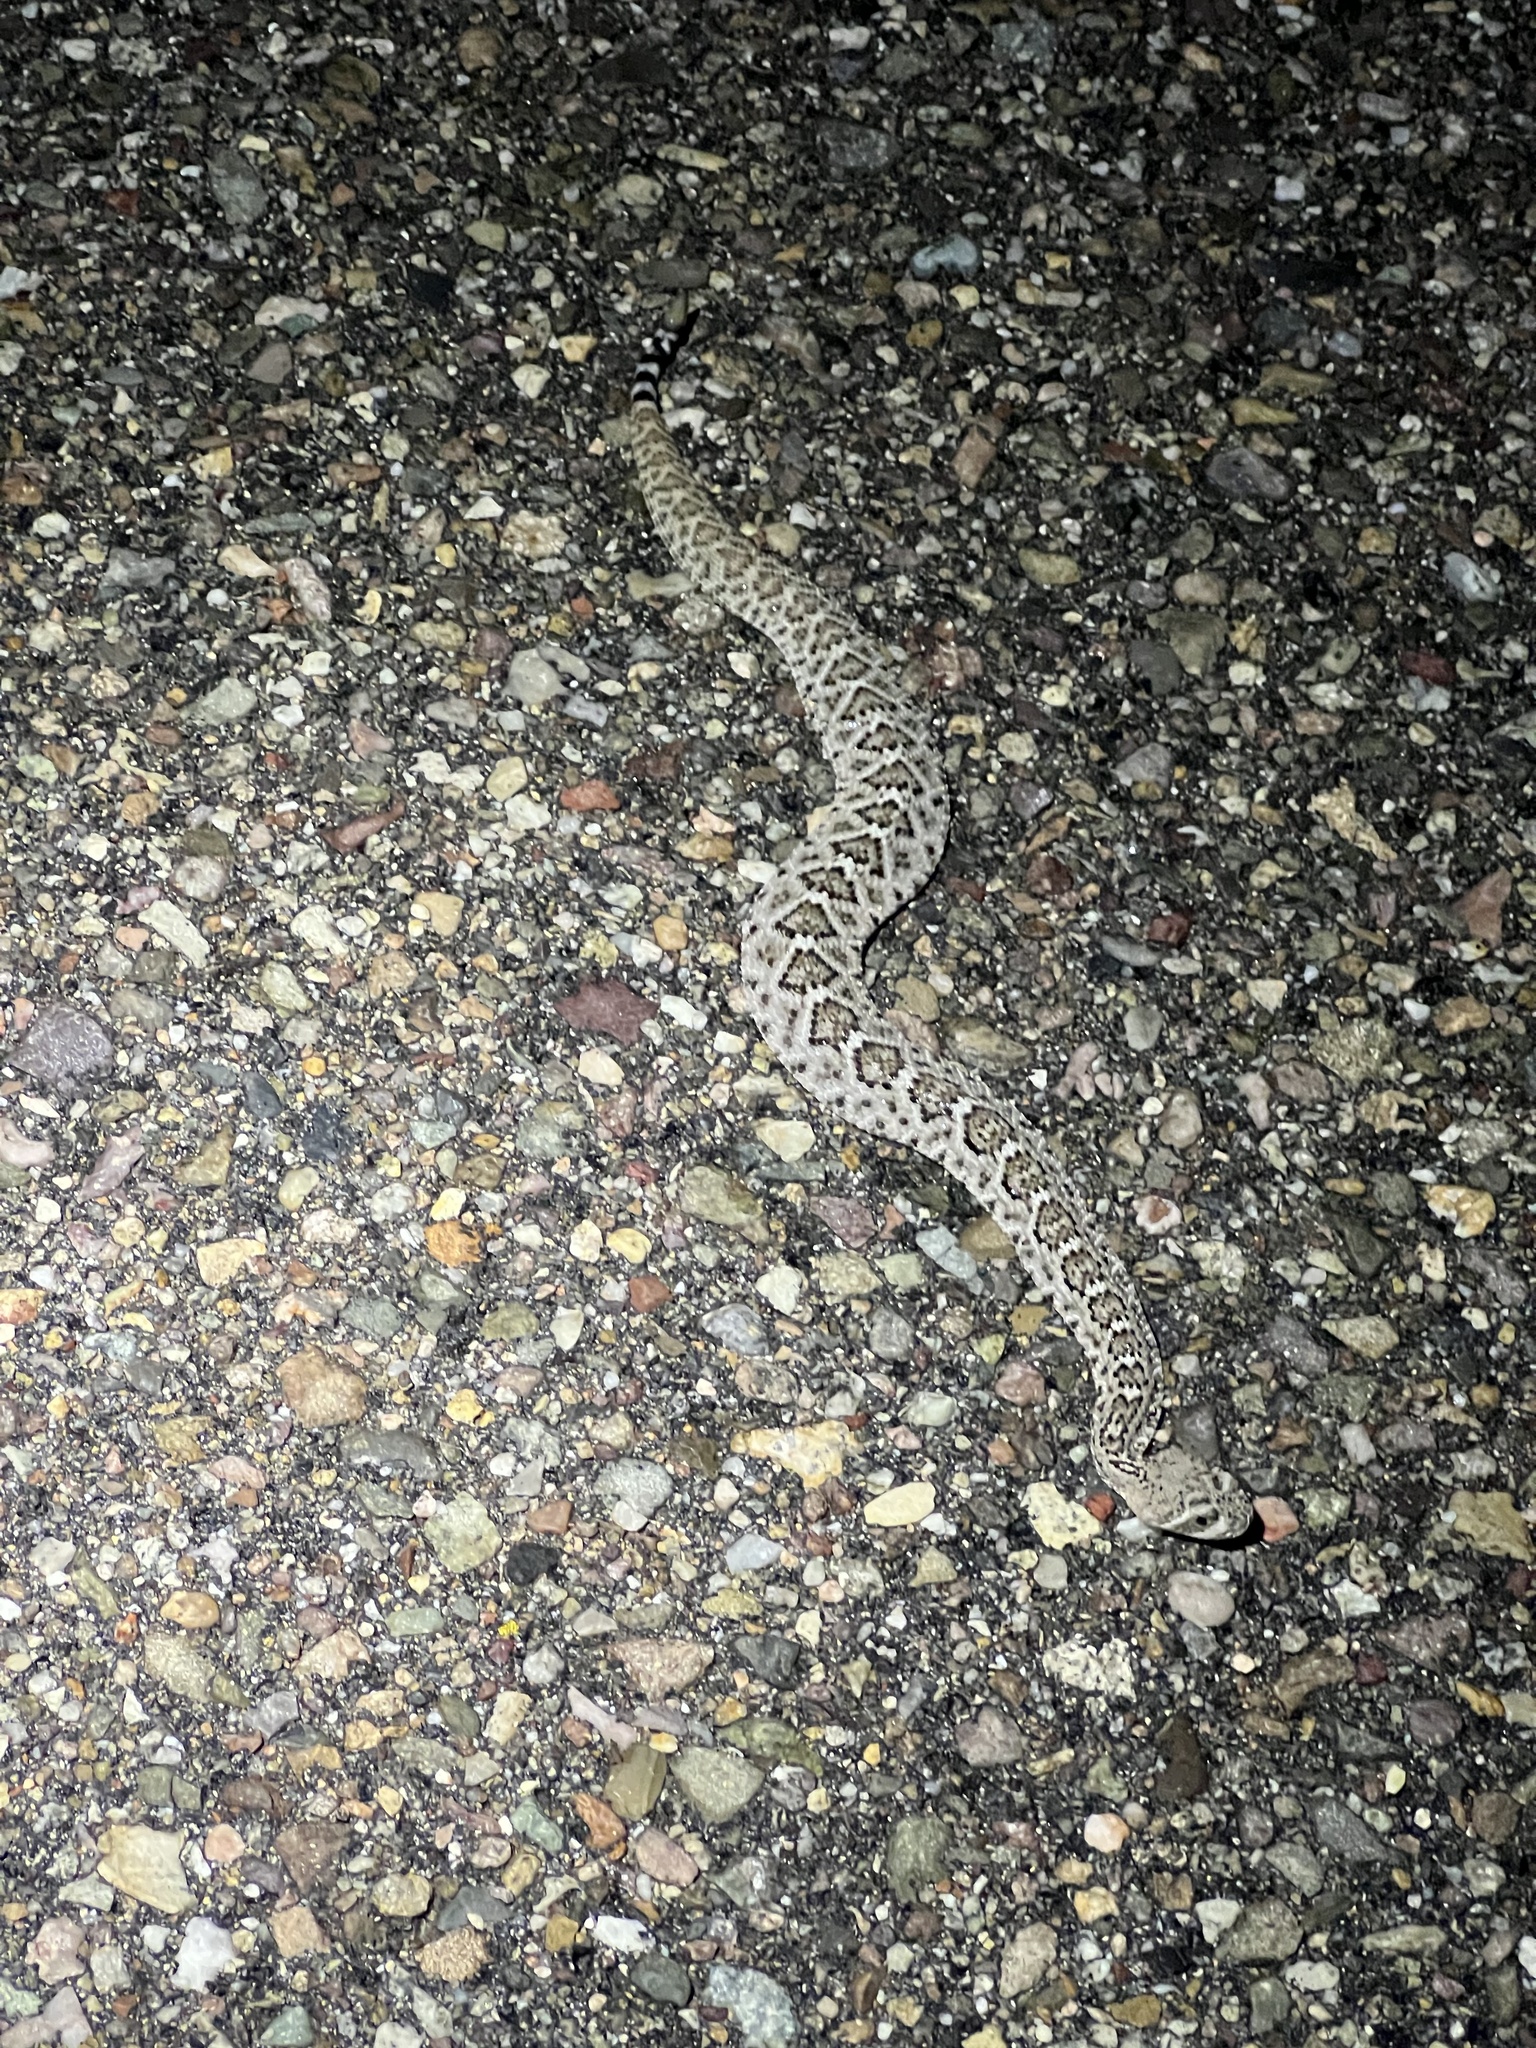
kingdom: Animalia
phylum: Chordata
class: Squamata
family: Viperidae
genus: Crotalus
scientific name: Crotalus atrox
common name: Western diamond-backed rattlesnake
